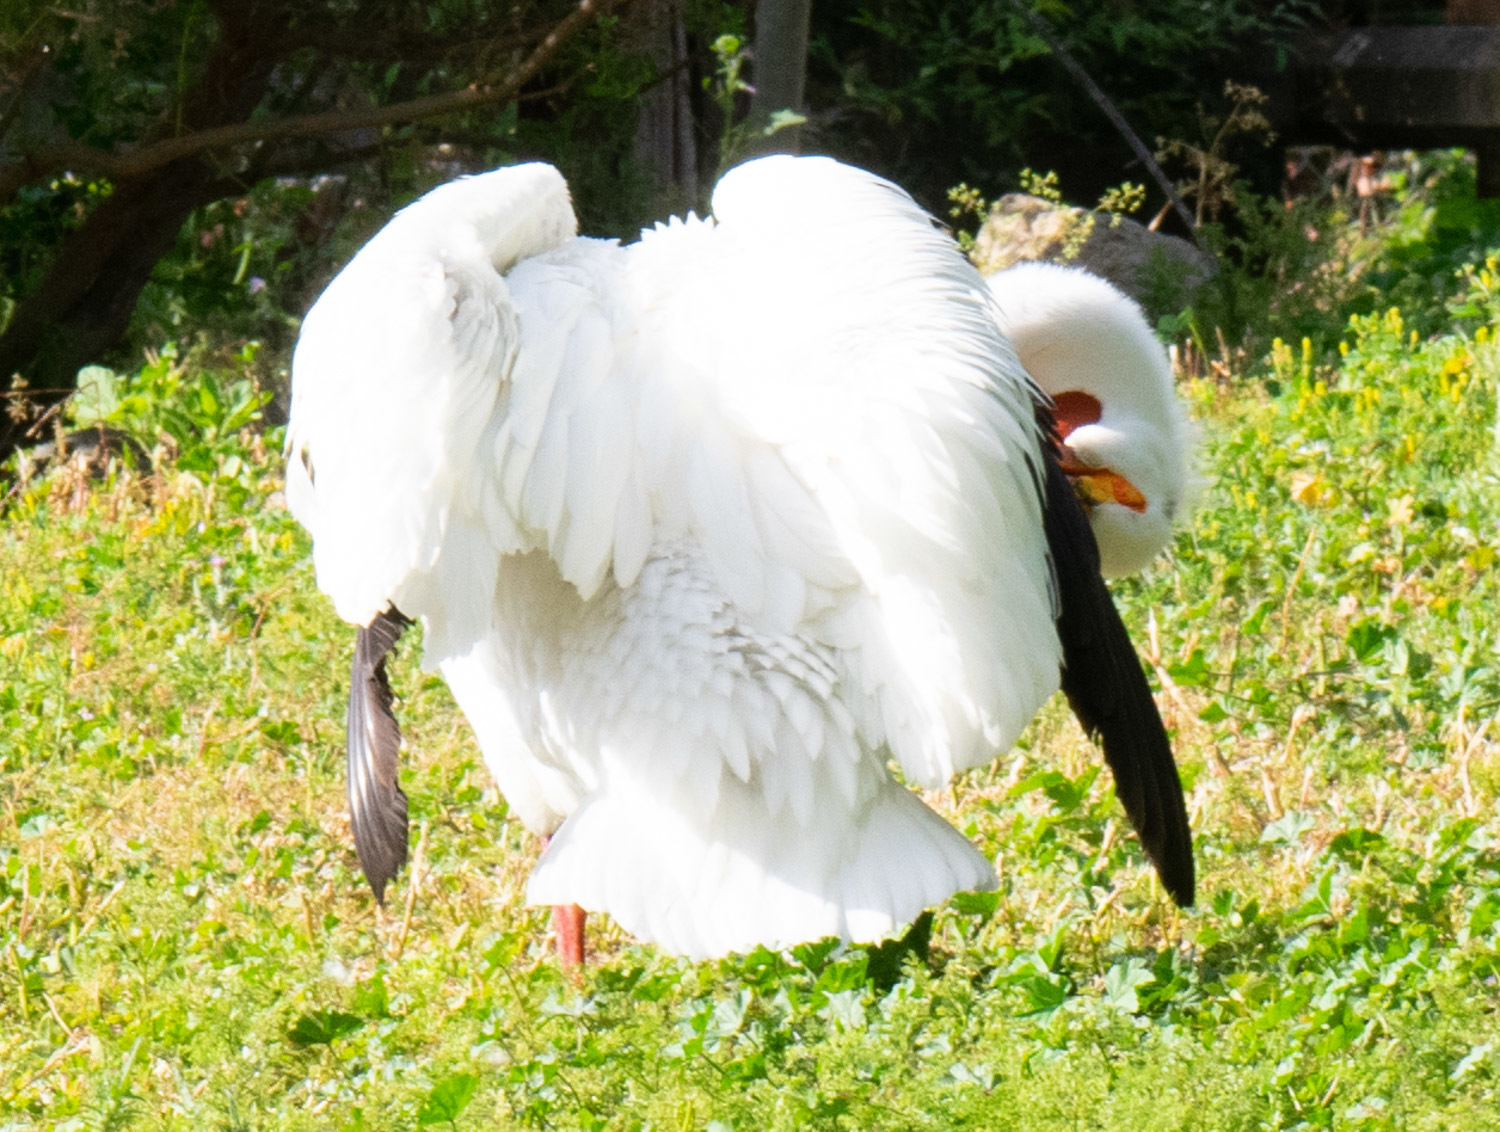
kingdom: Animalia
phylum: Chordata
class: Aves
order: Pelecaniformes
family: Pelecanidae
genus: Pelecanus
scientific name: Pelecanus erythrorhynchos
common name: American white pelican
